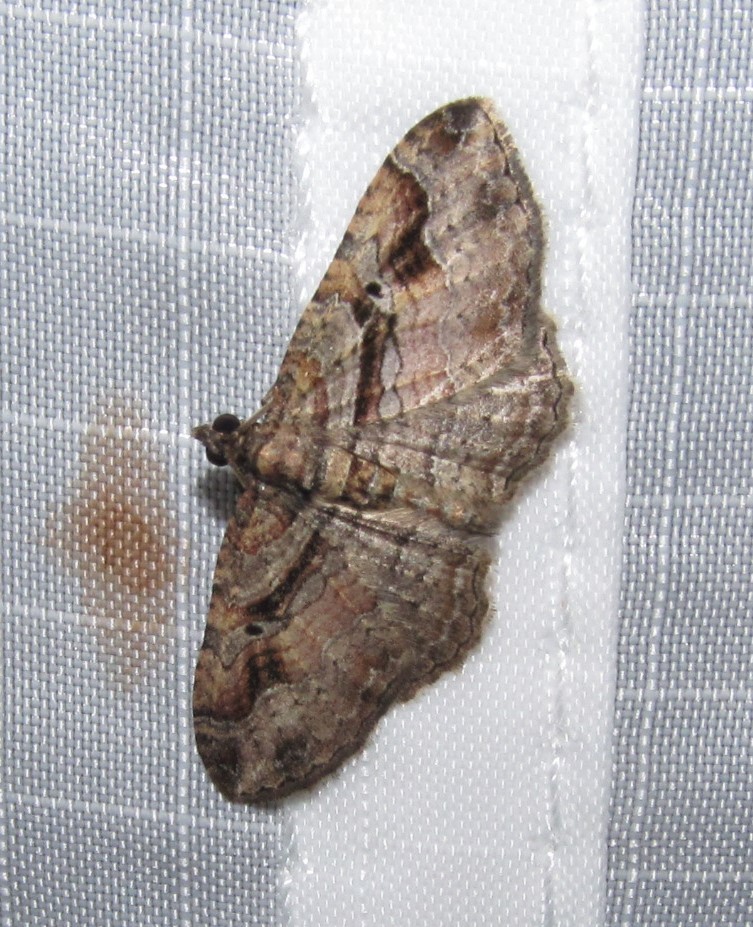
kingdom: Animalia
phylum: Arthropoda
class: Insecta
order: Lepidoptera
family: Geometridae
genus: Costaconvexa
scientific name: Costaconvexa centrostrigaria
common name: Bent-line carpet
